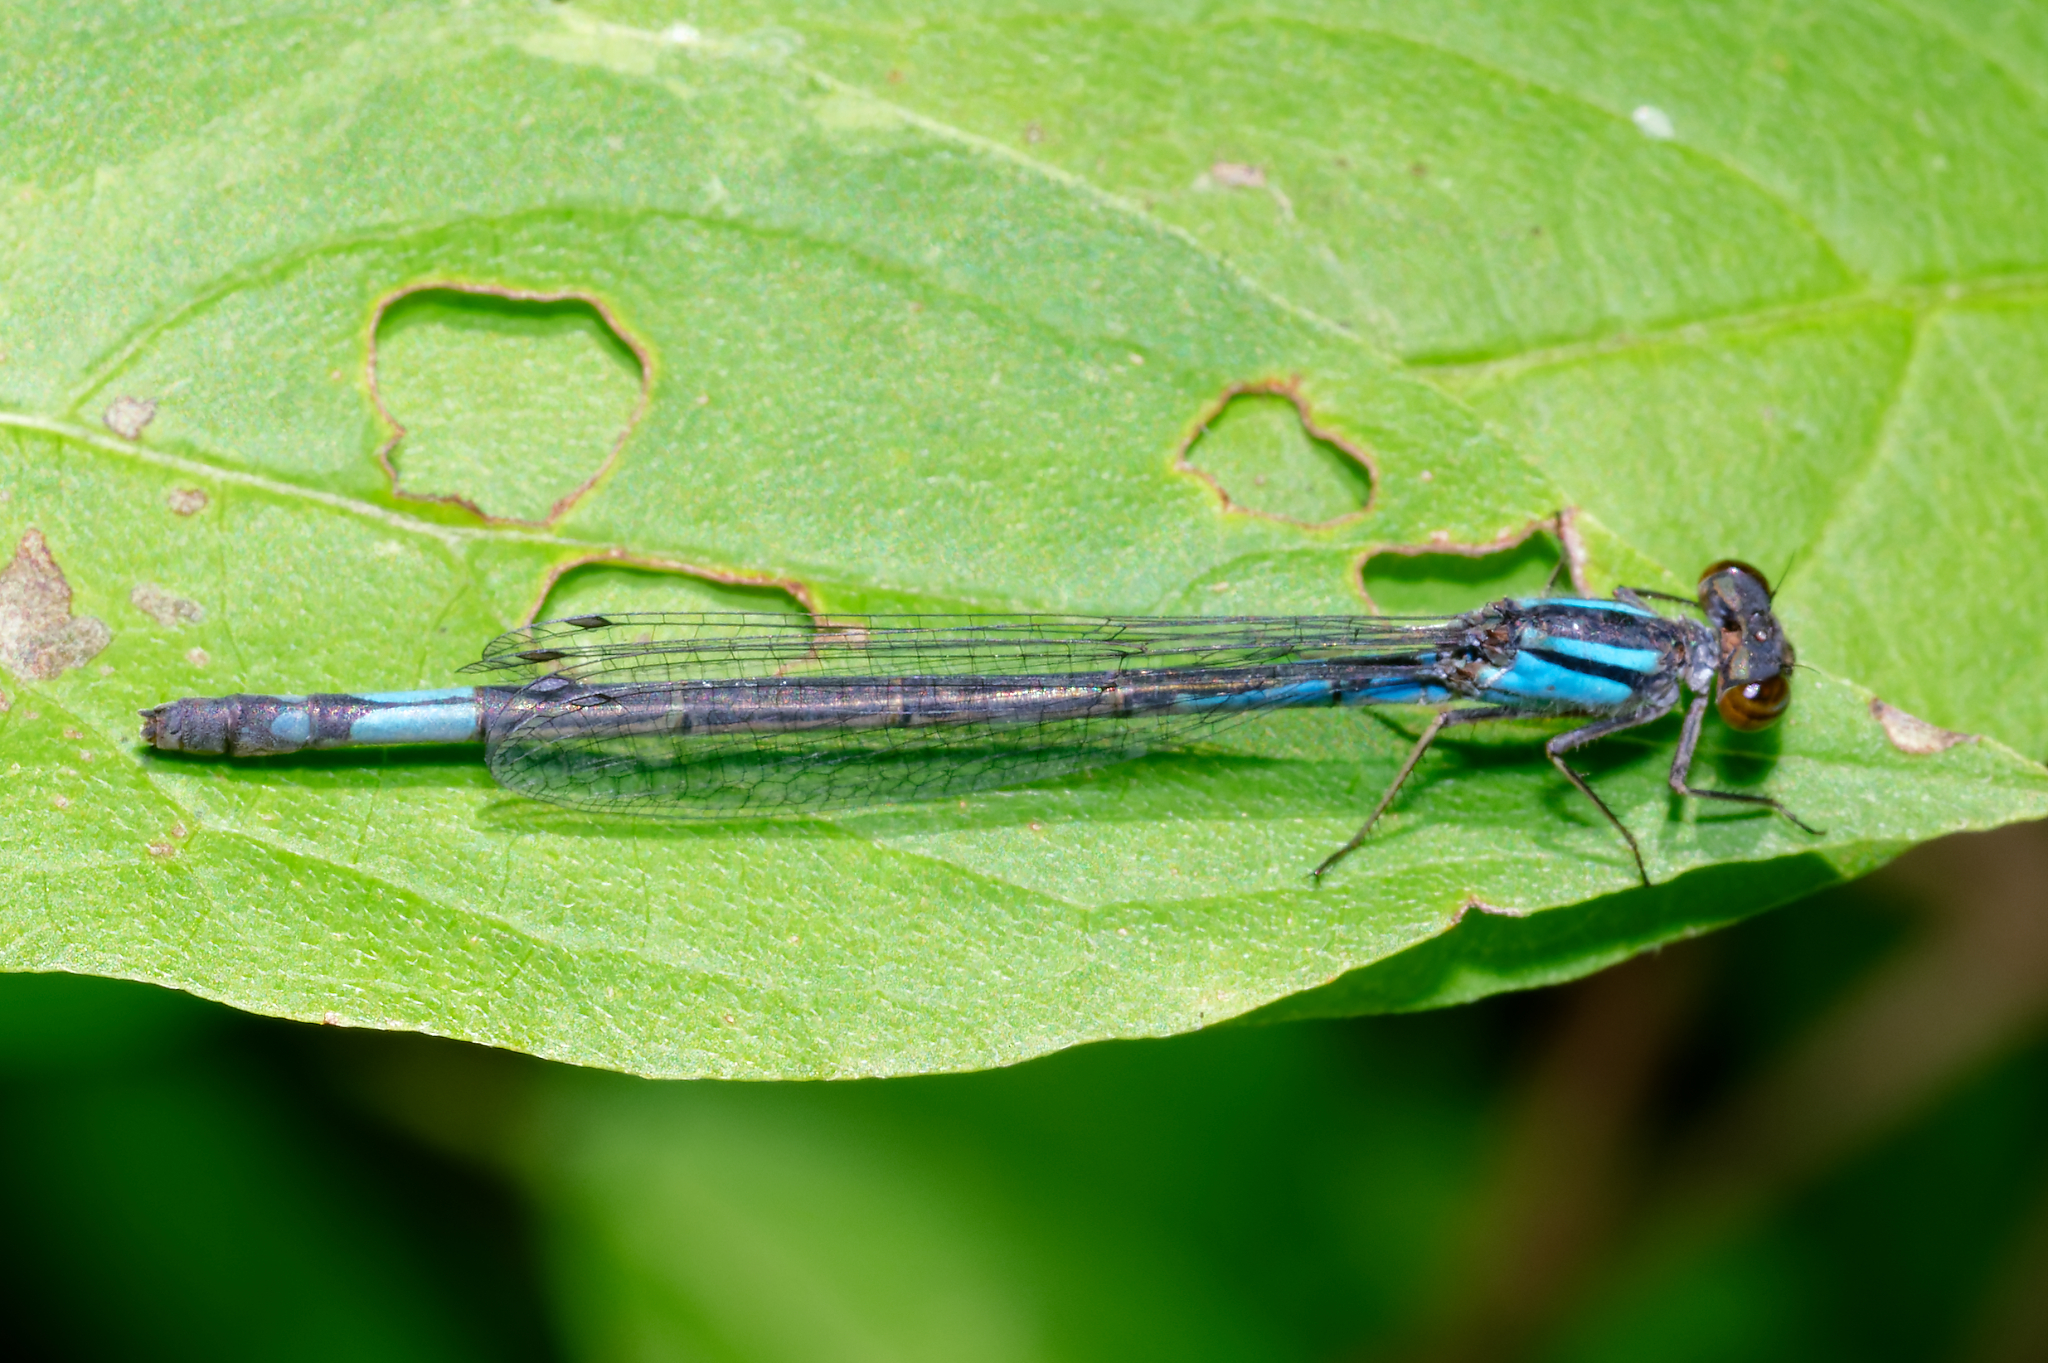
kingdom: Animalia
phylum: Arthropoda
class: Insecta
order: Odonata
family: Coenagrionidae
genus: Enallagma
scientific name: Enallagma aspersum
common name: Azure bluet
